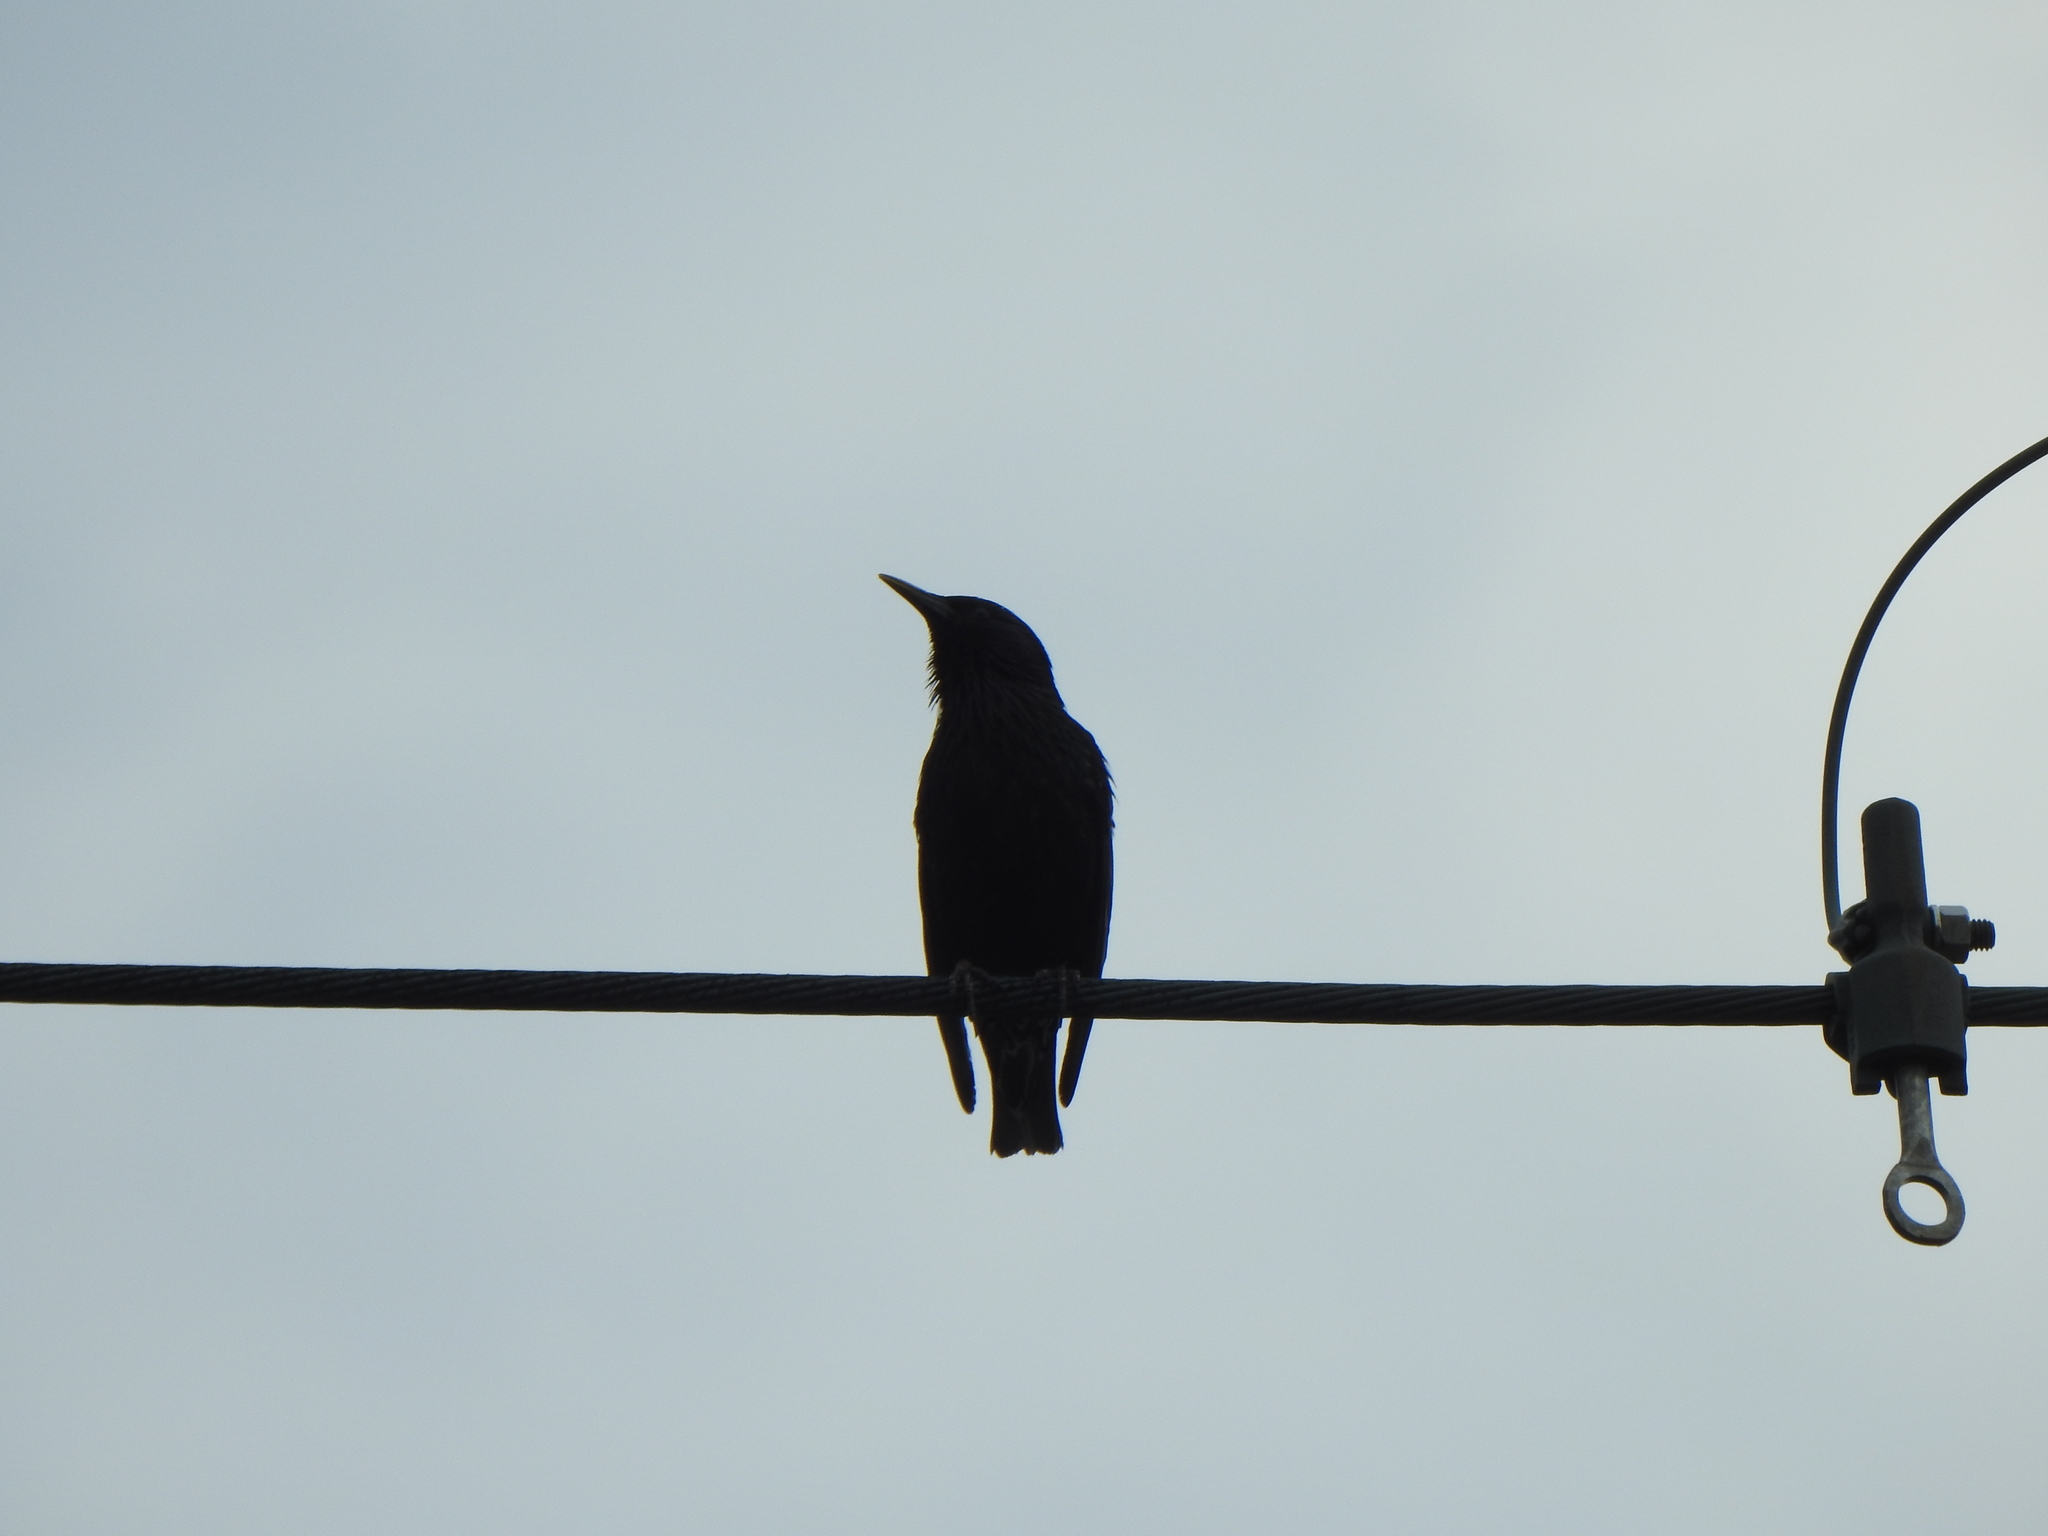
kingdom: Animalia
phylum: Chordata
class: Aves
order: Passeriformes
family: Sturnidae
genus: Sturnus
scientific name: Sturnus vulgaris
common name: Common starling
